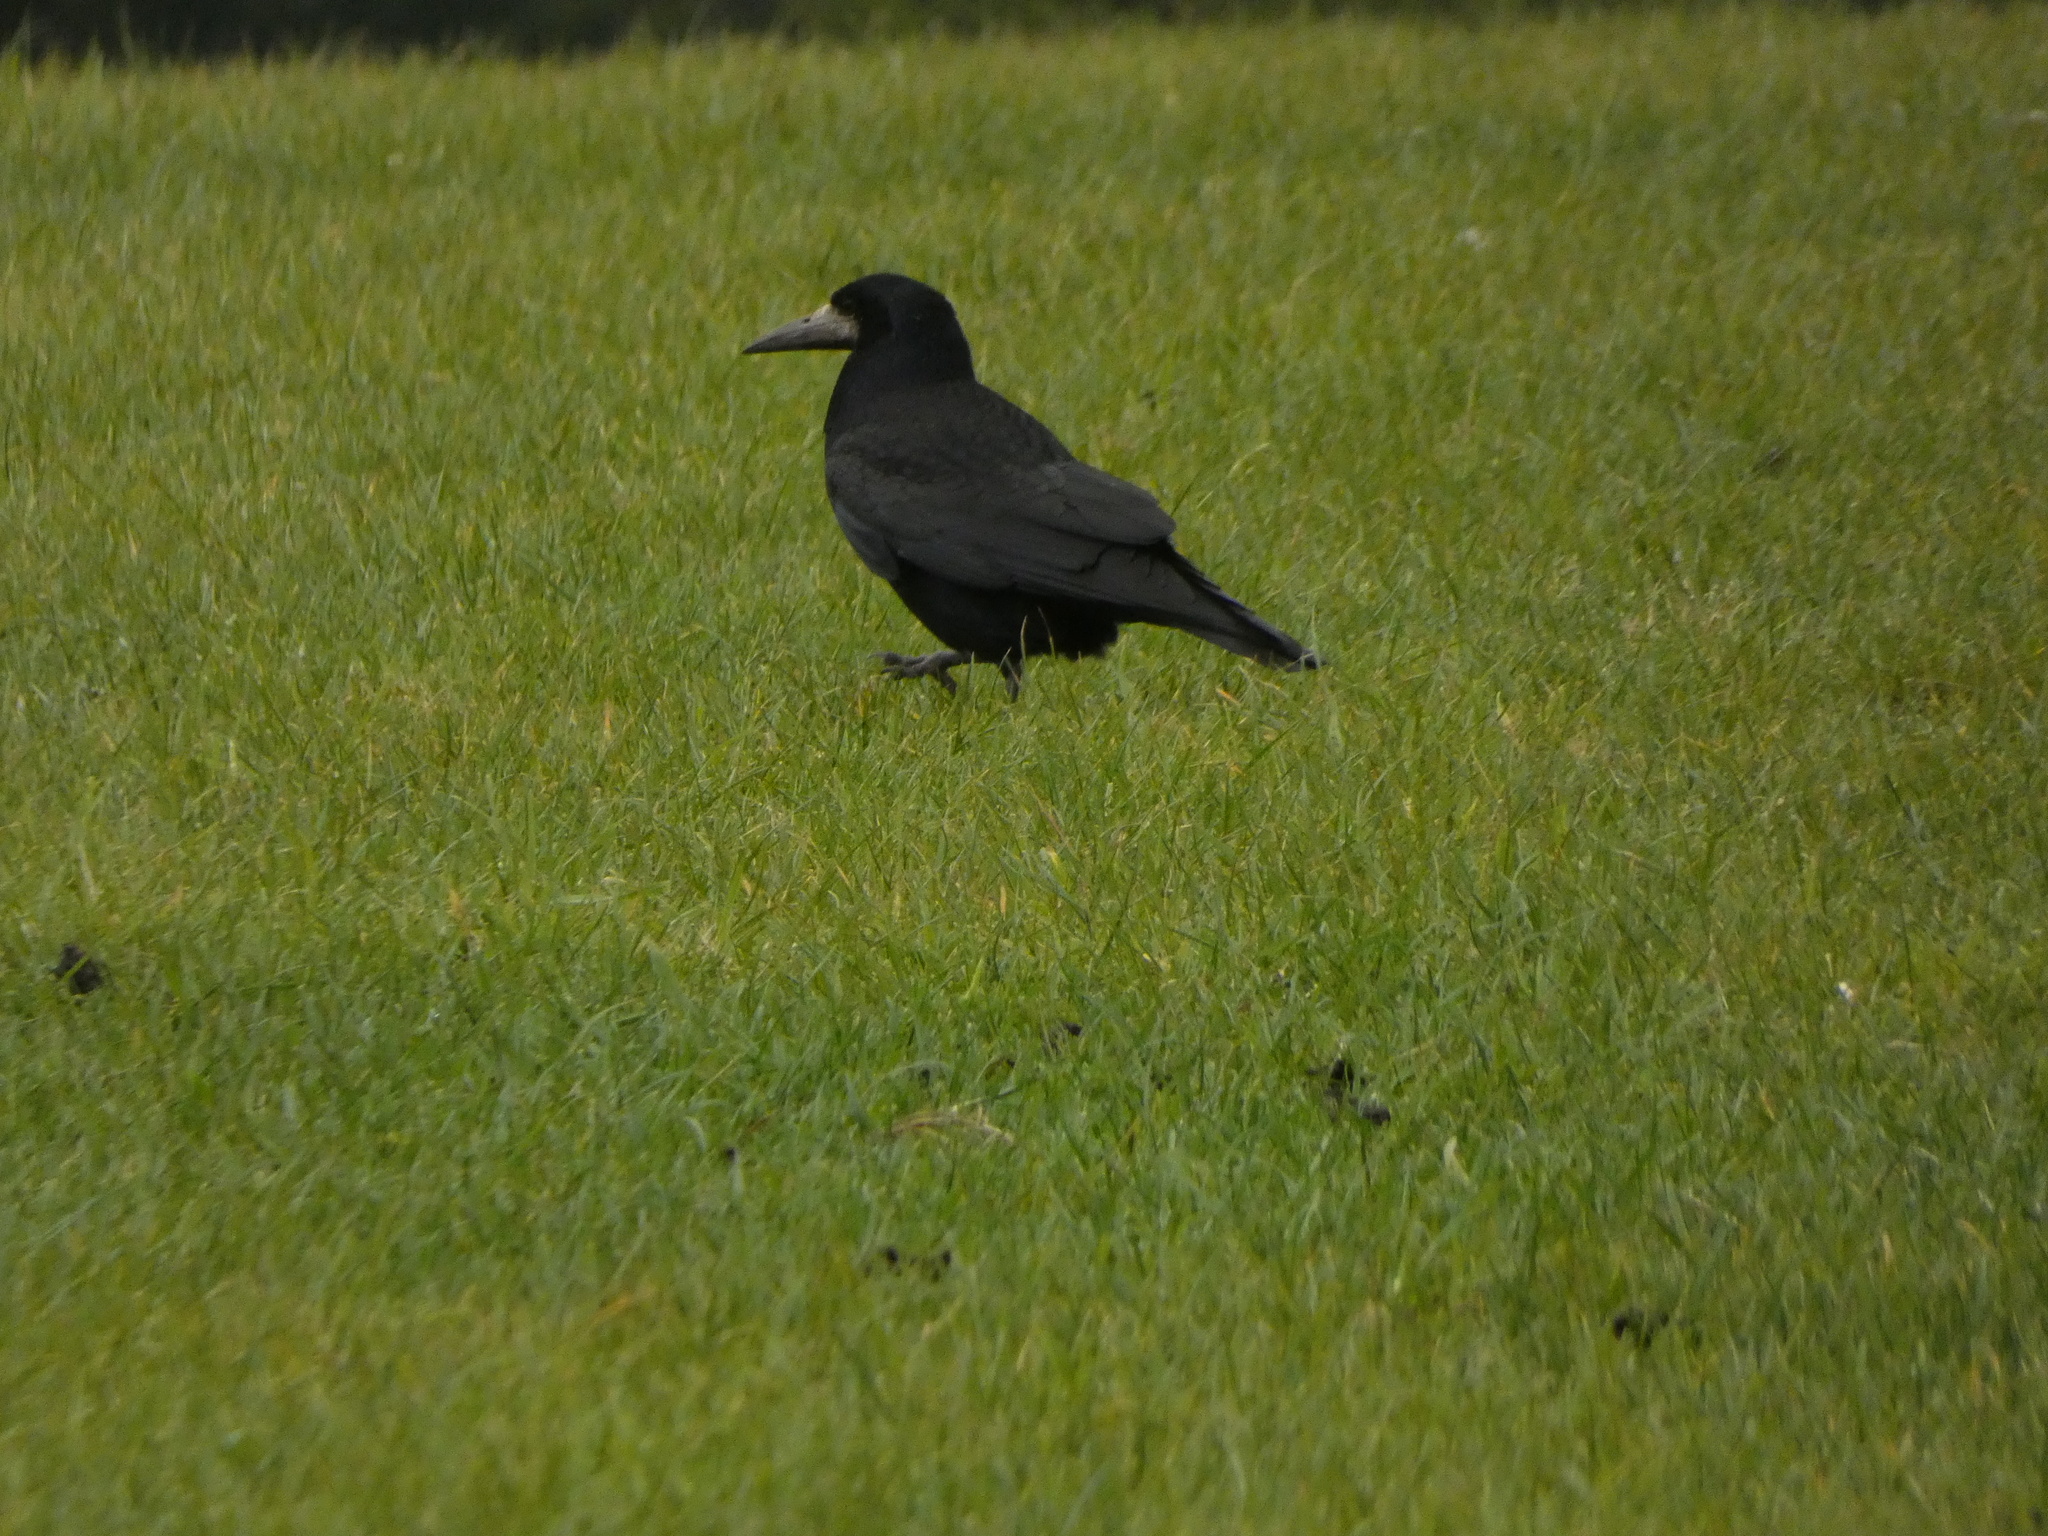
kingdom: Animalia
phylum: Chordata
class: Aves
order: Passeriformes
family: Corvidae
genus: Corvus
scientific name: Corvus frugilegus
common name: Rook
